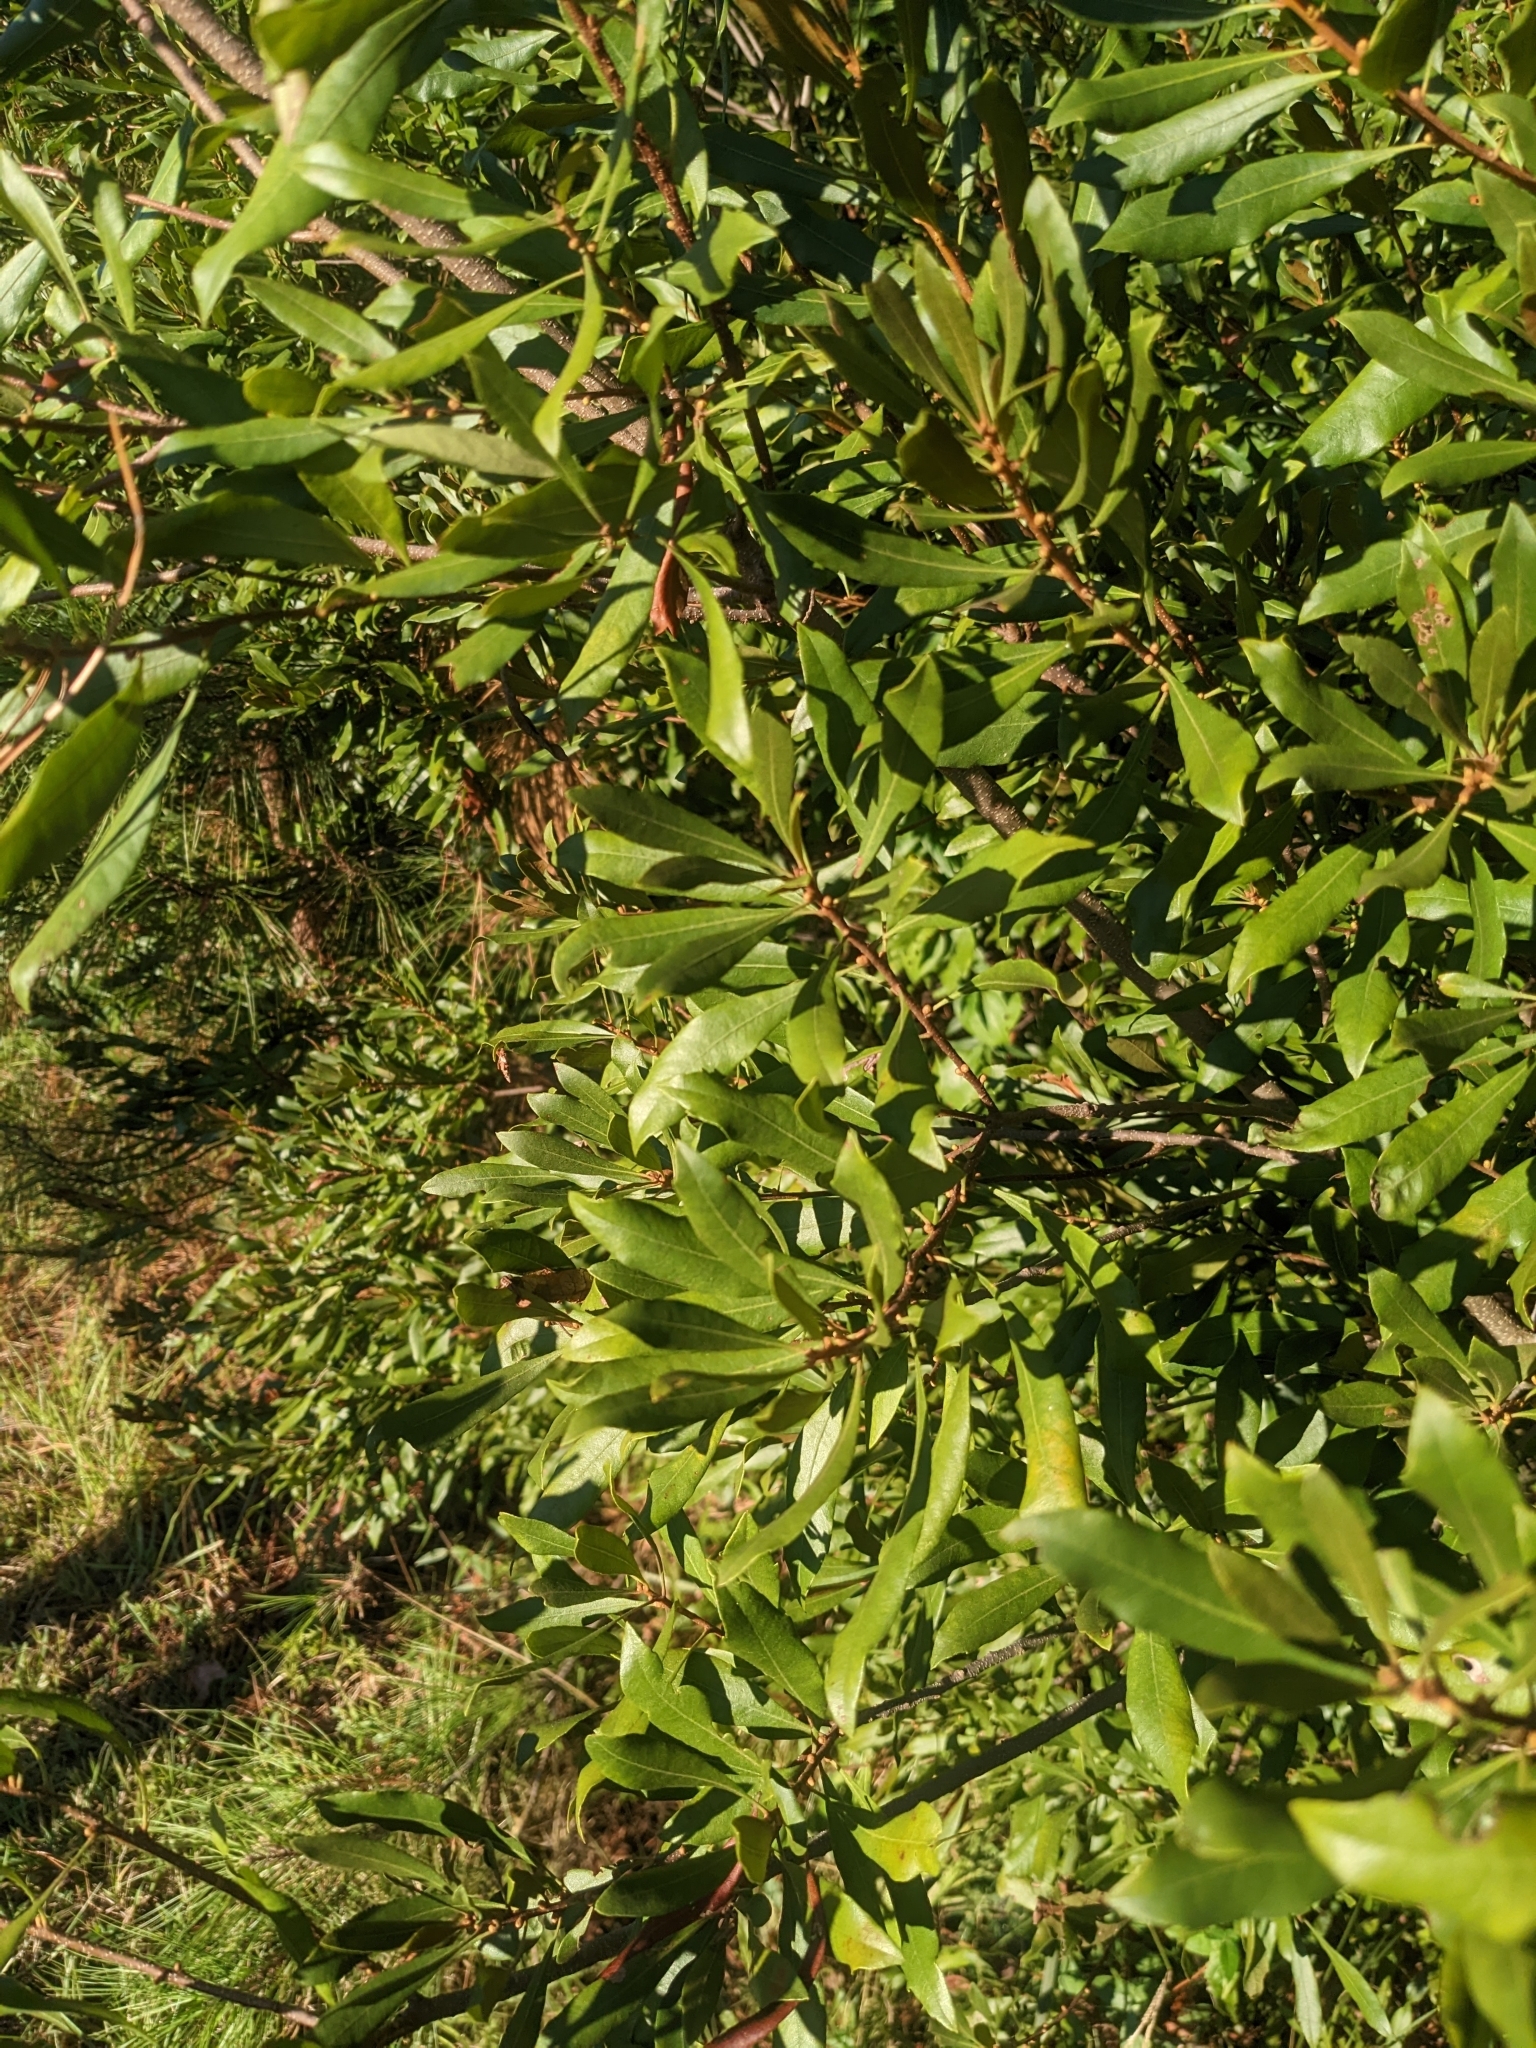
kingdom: Plantae
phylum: Tracheophyta
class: Magnoliopsida
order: Fagales
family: Myricaceae
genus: Morella
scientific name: Morella cerifera
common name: Wax myrtle
